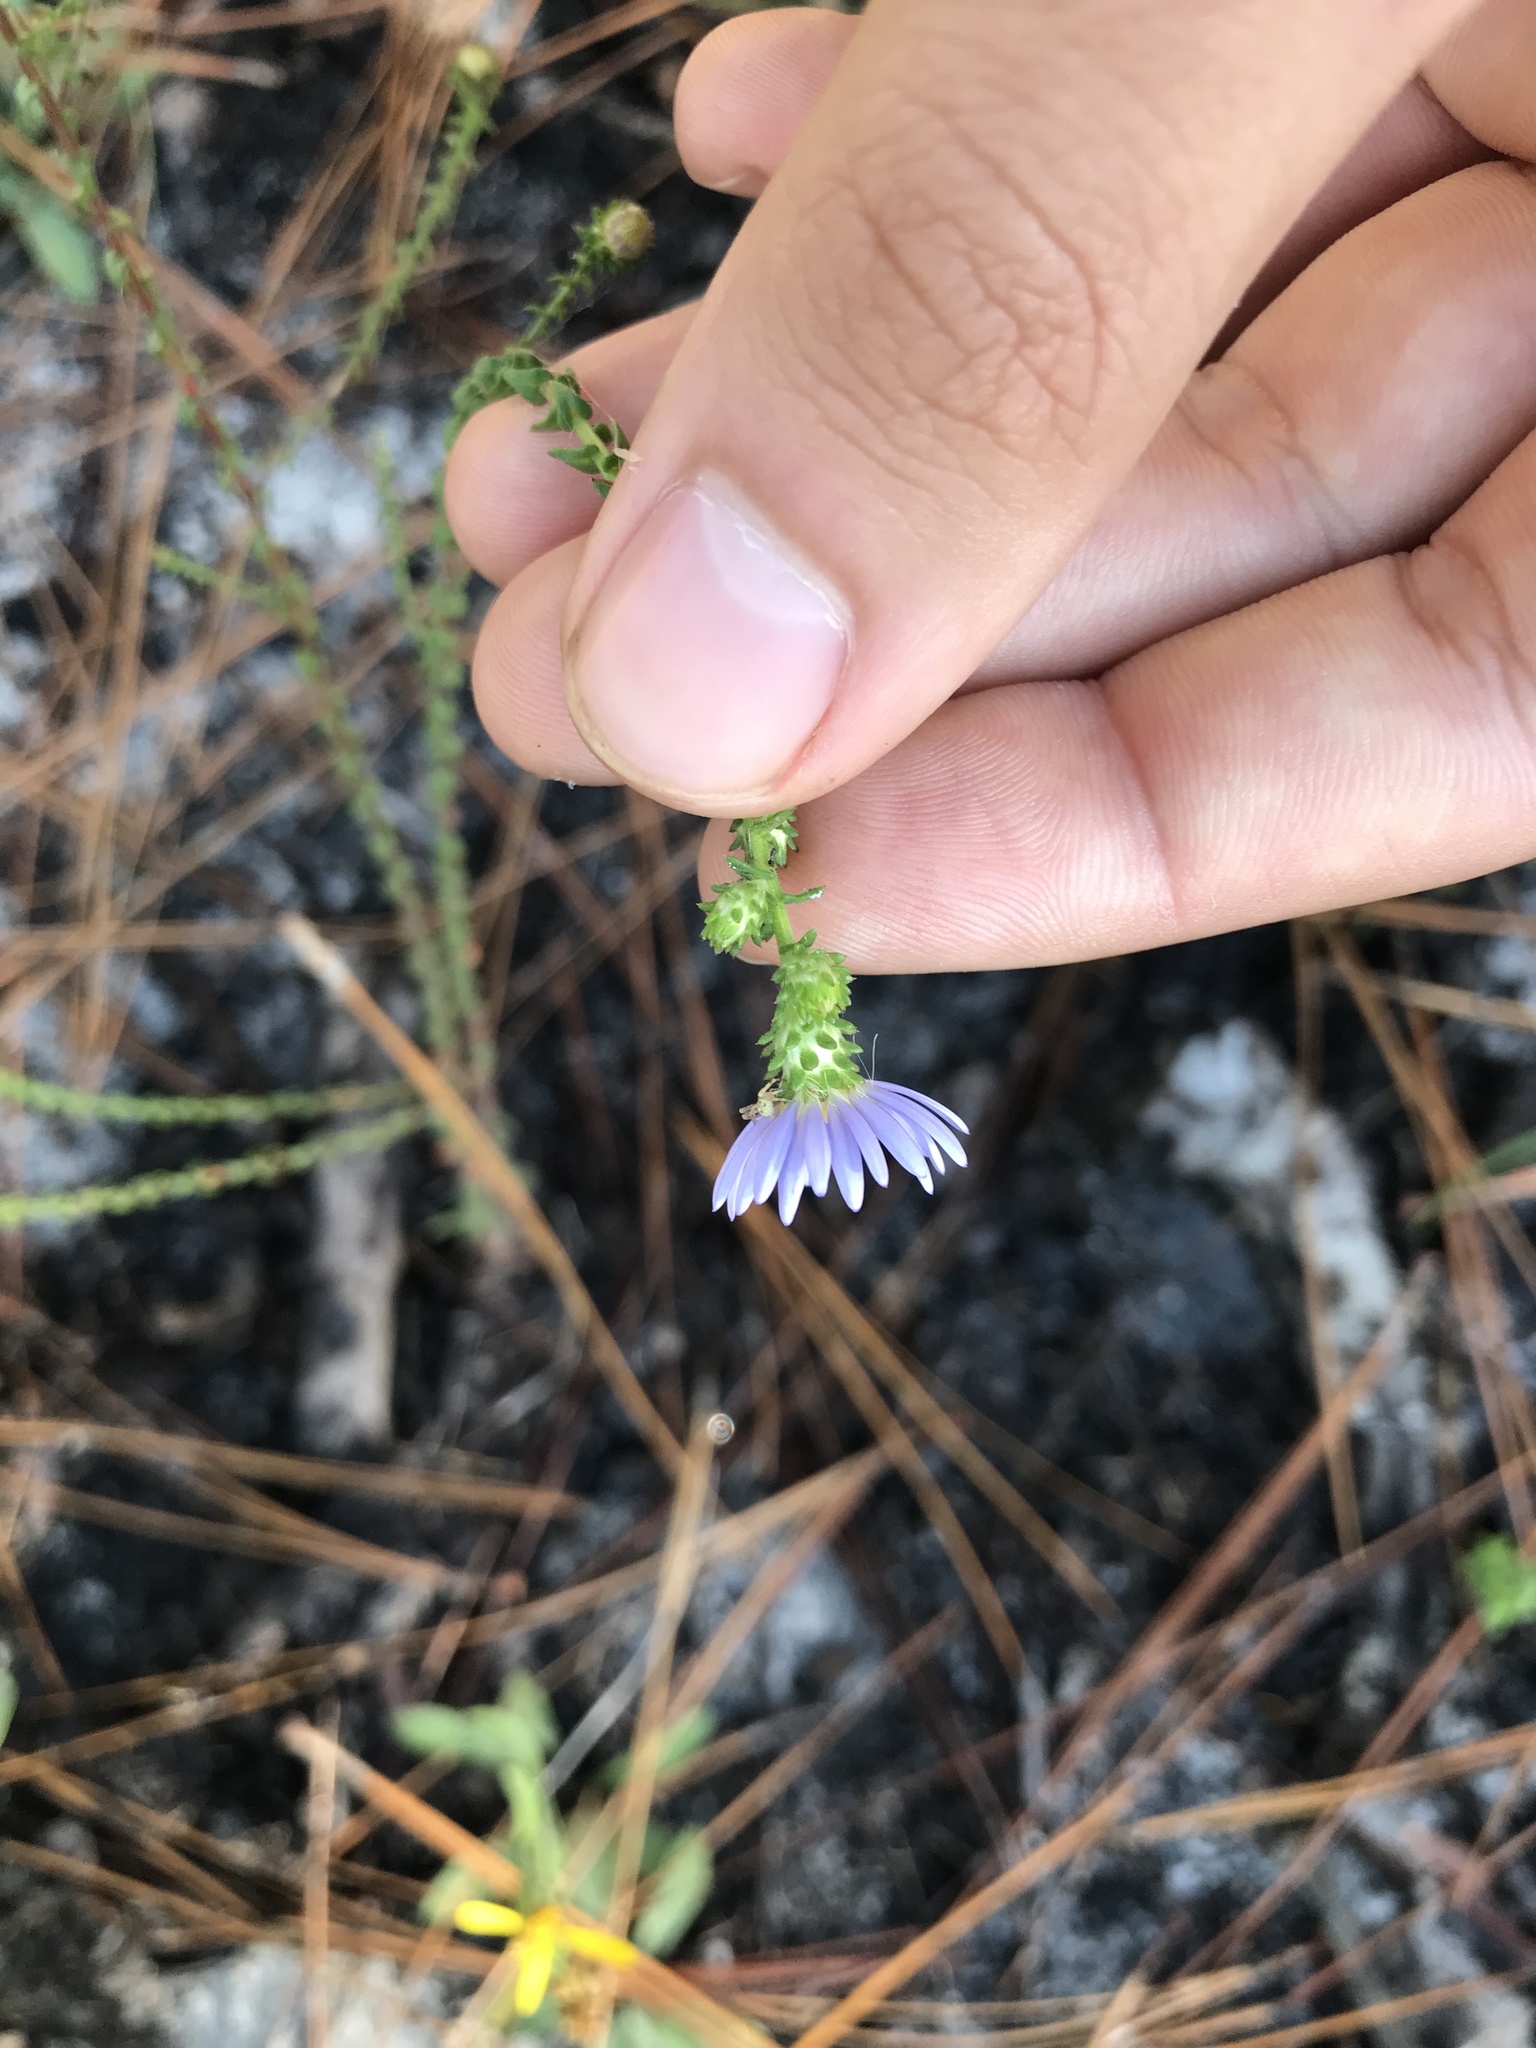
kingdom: Plantae
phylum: Tracheophyta
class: Magnoliopsida
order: Asterales
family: Asteraceae
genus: Symphyotrichum
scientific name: Symphyotrichum walteri
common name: Walter's aster
